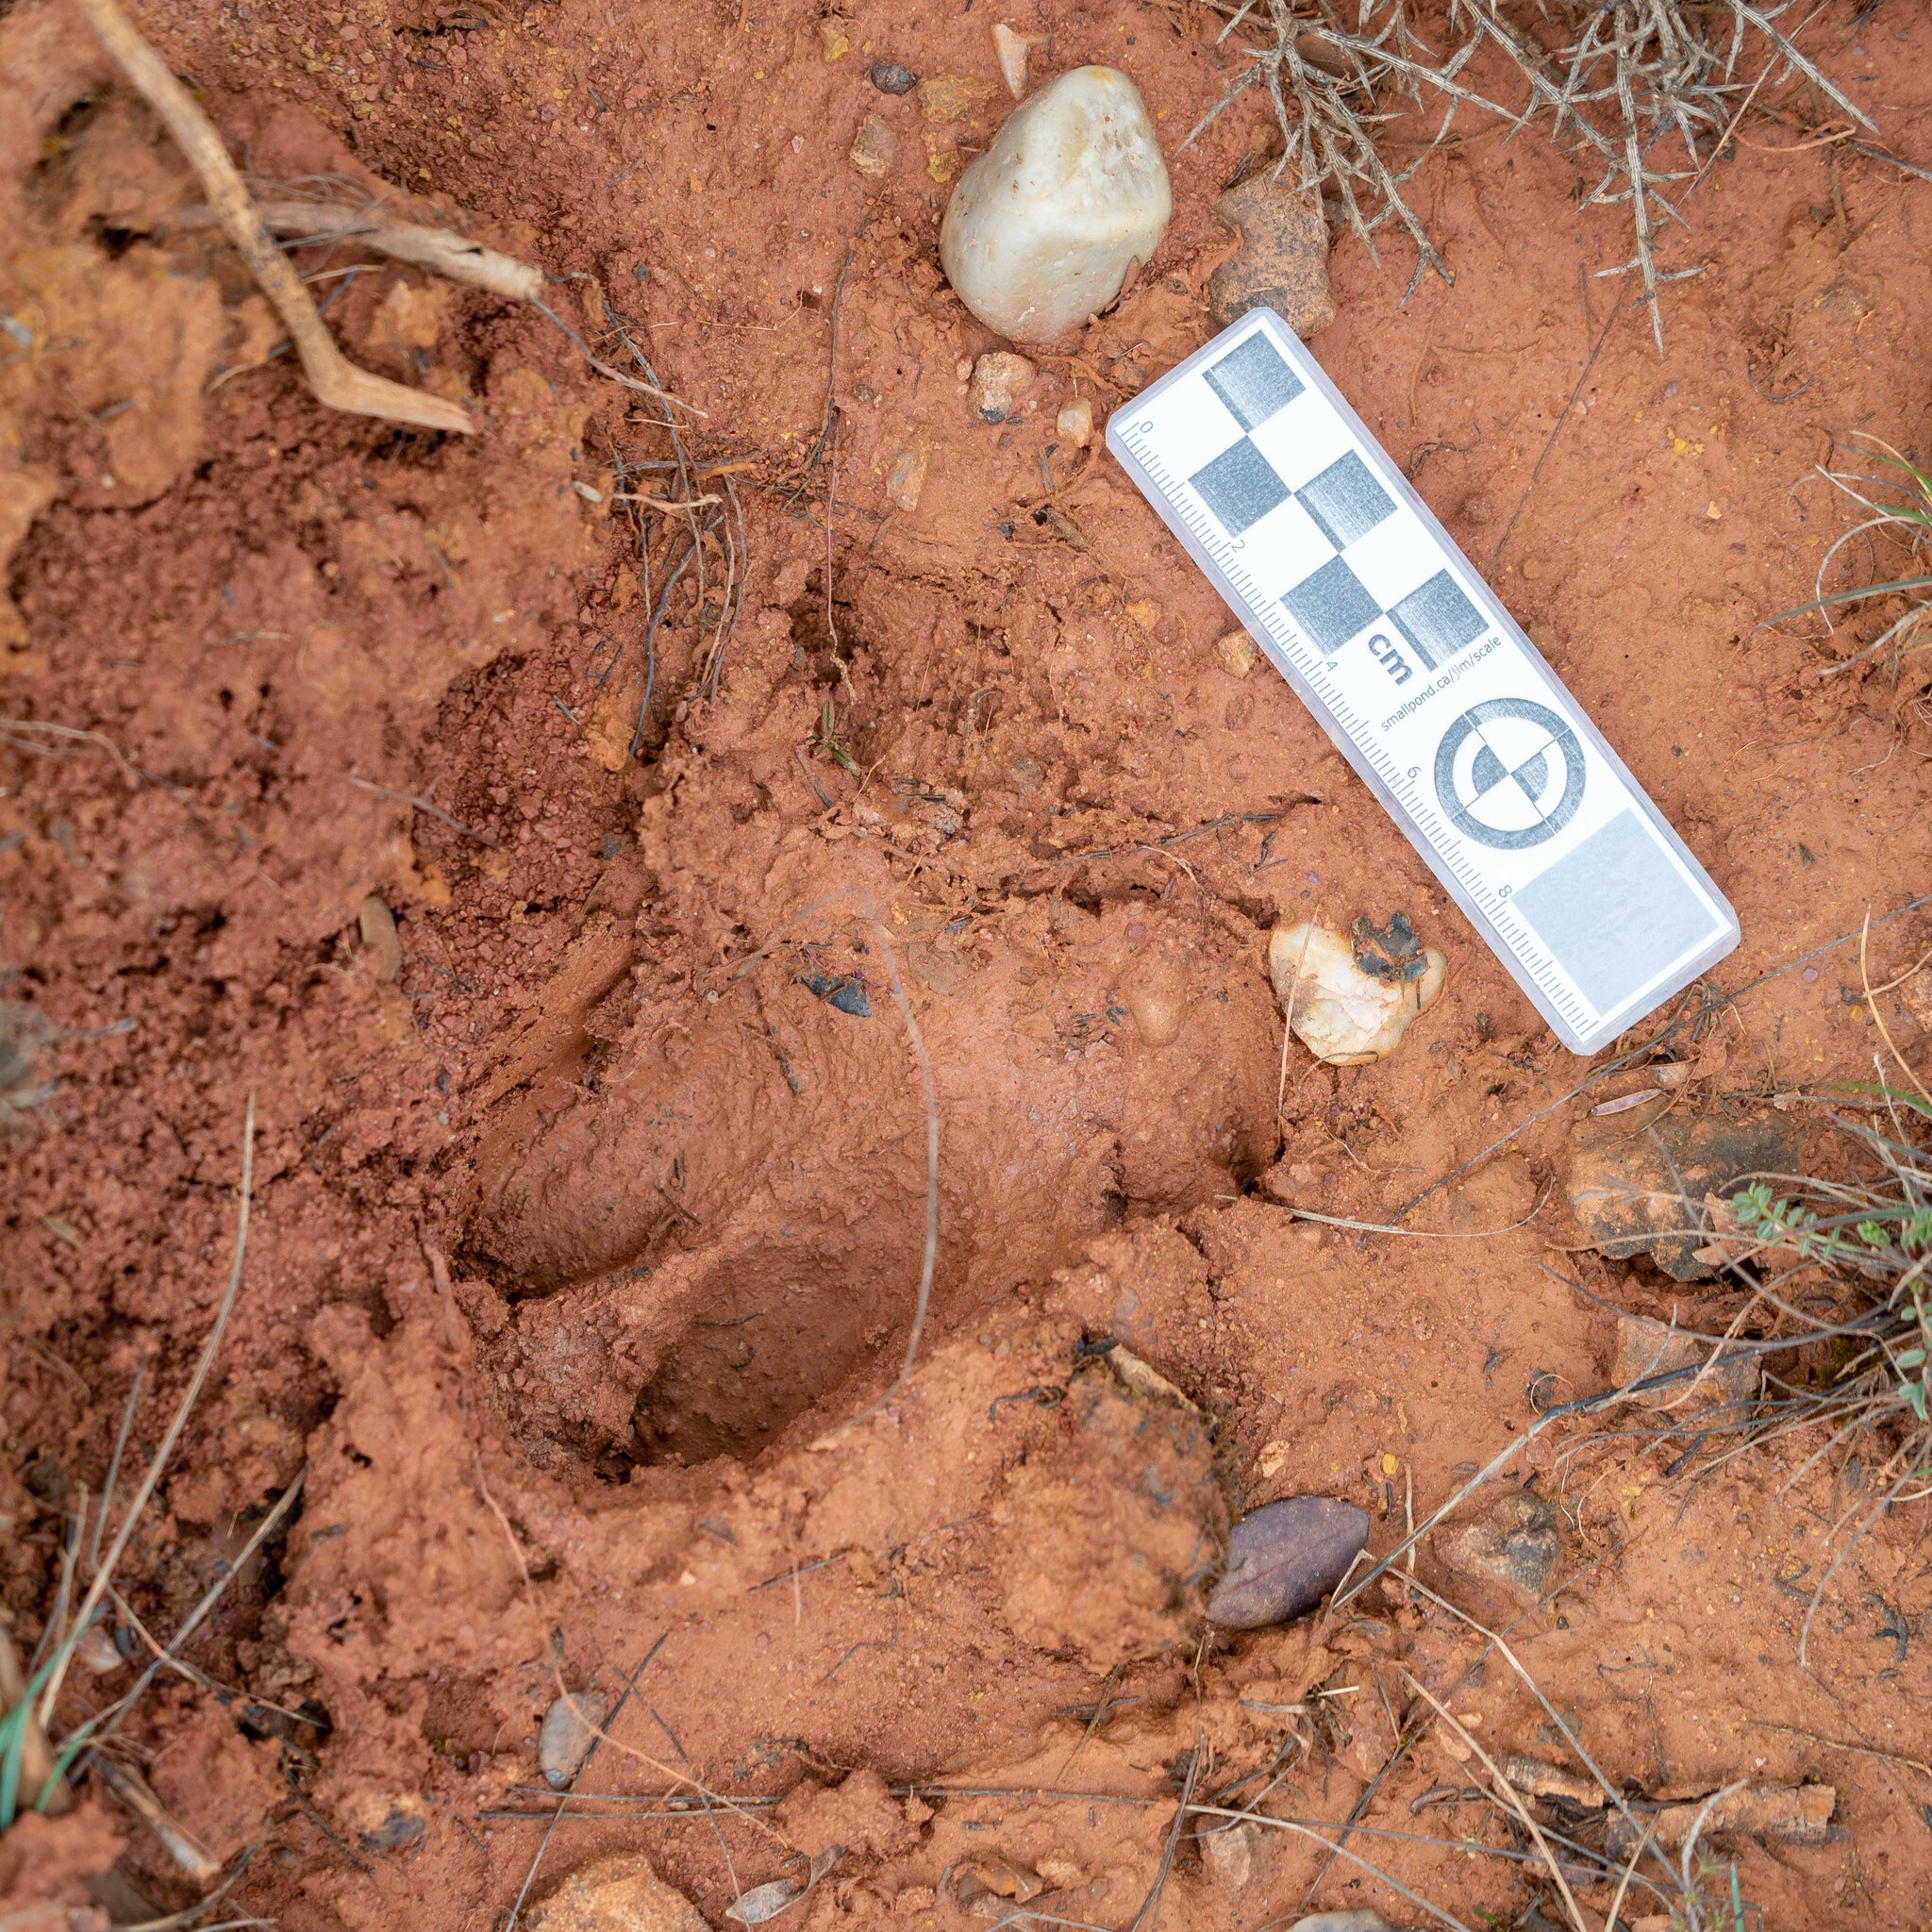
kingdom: Animalia
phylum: Chordata
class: Mammalia
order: Artiodactyla
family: Suidae
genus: Sus
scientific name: Sus scrofa
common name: Wild boar
